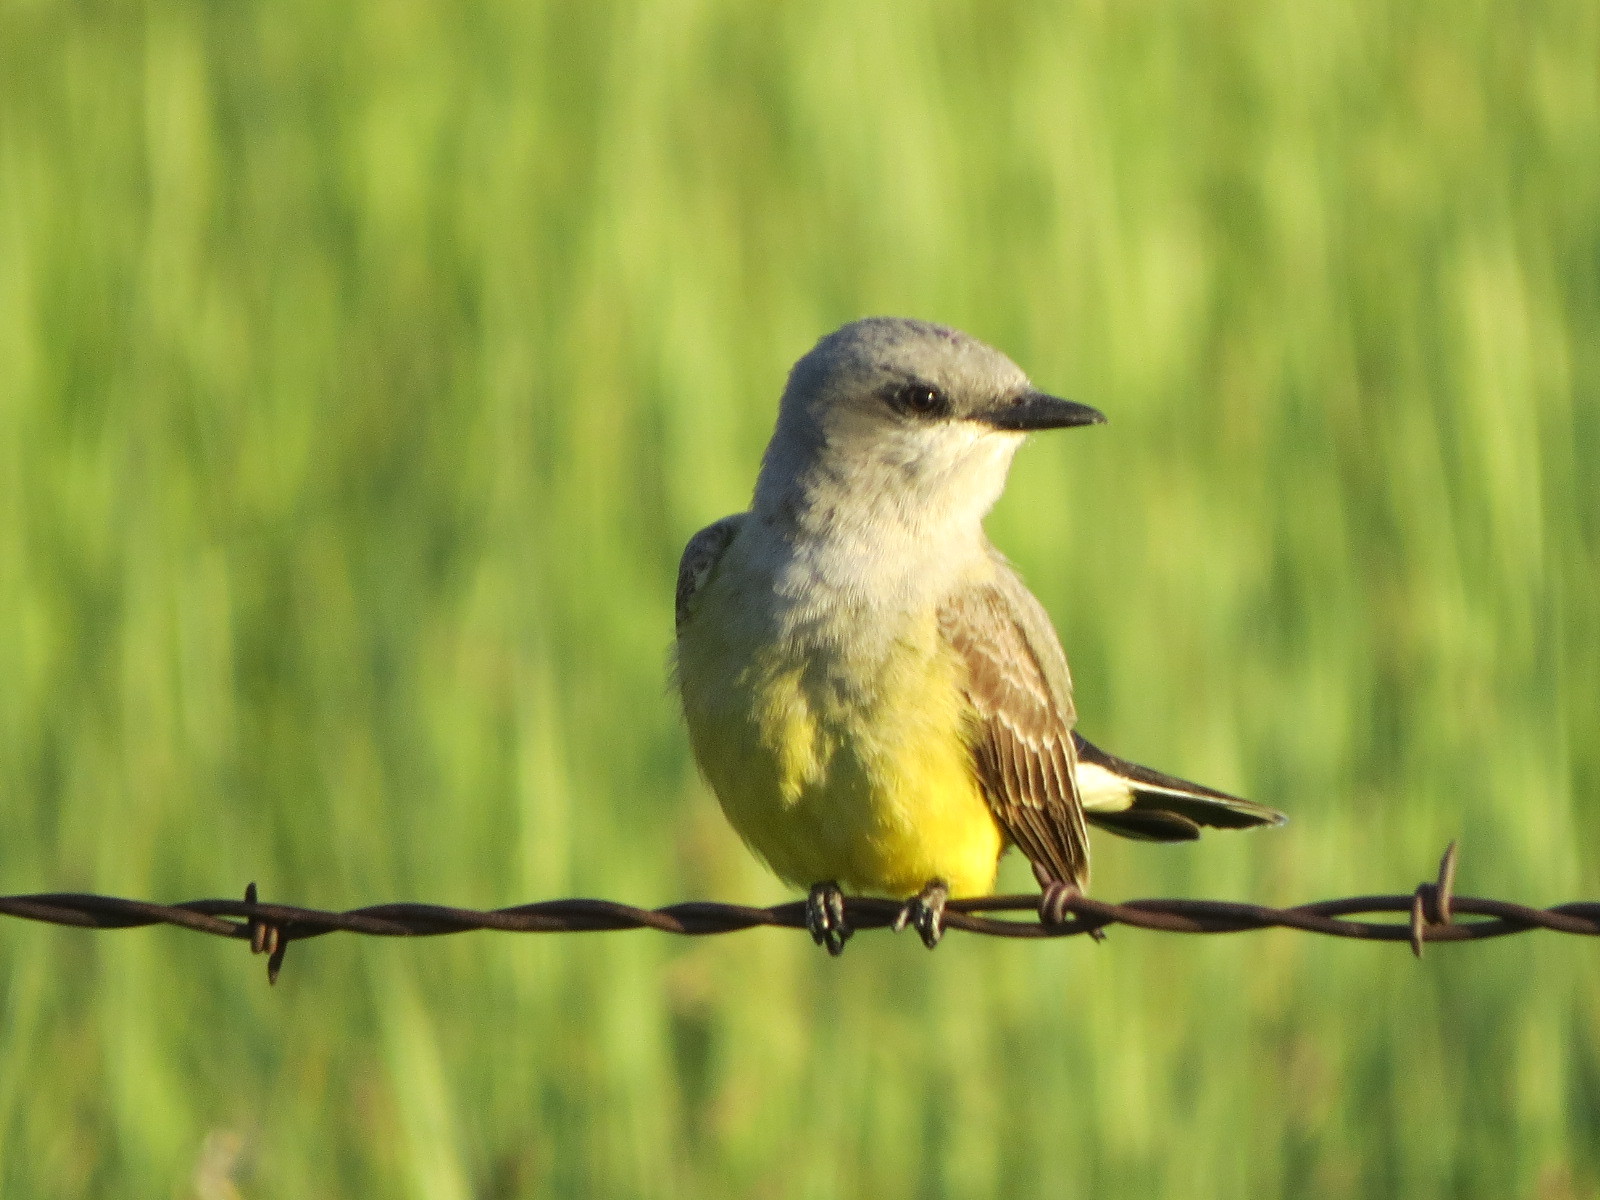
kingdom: Animalia
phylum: Chordata
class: Aves
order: Passeriformes
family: Tyrannidae
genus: Tyrannus
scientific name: Tyrannus verticalis
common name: Western kingbird
